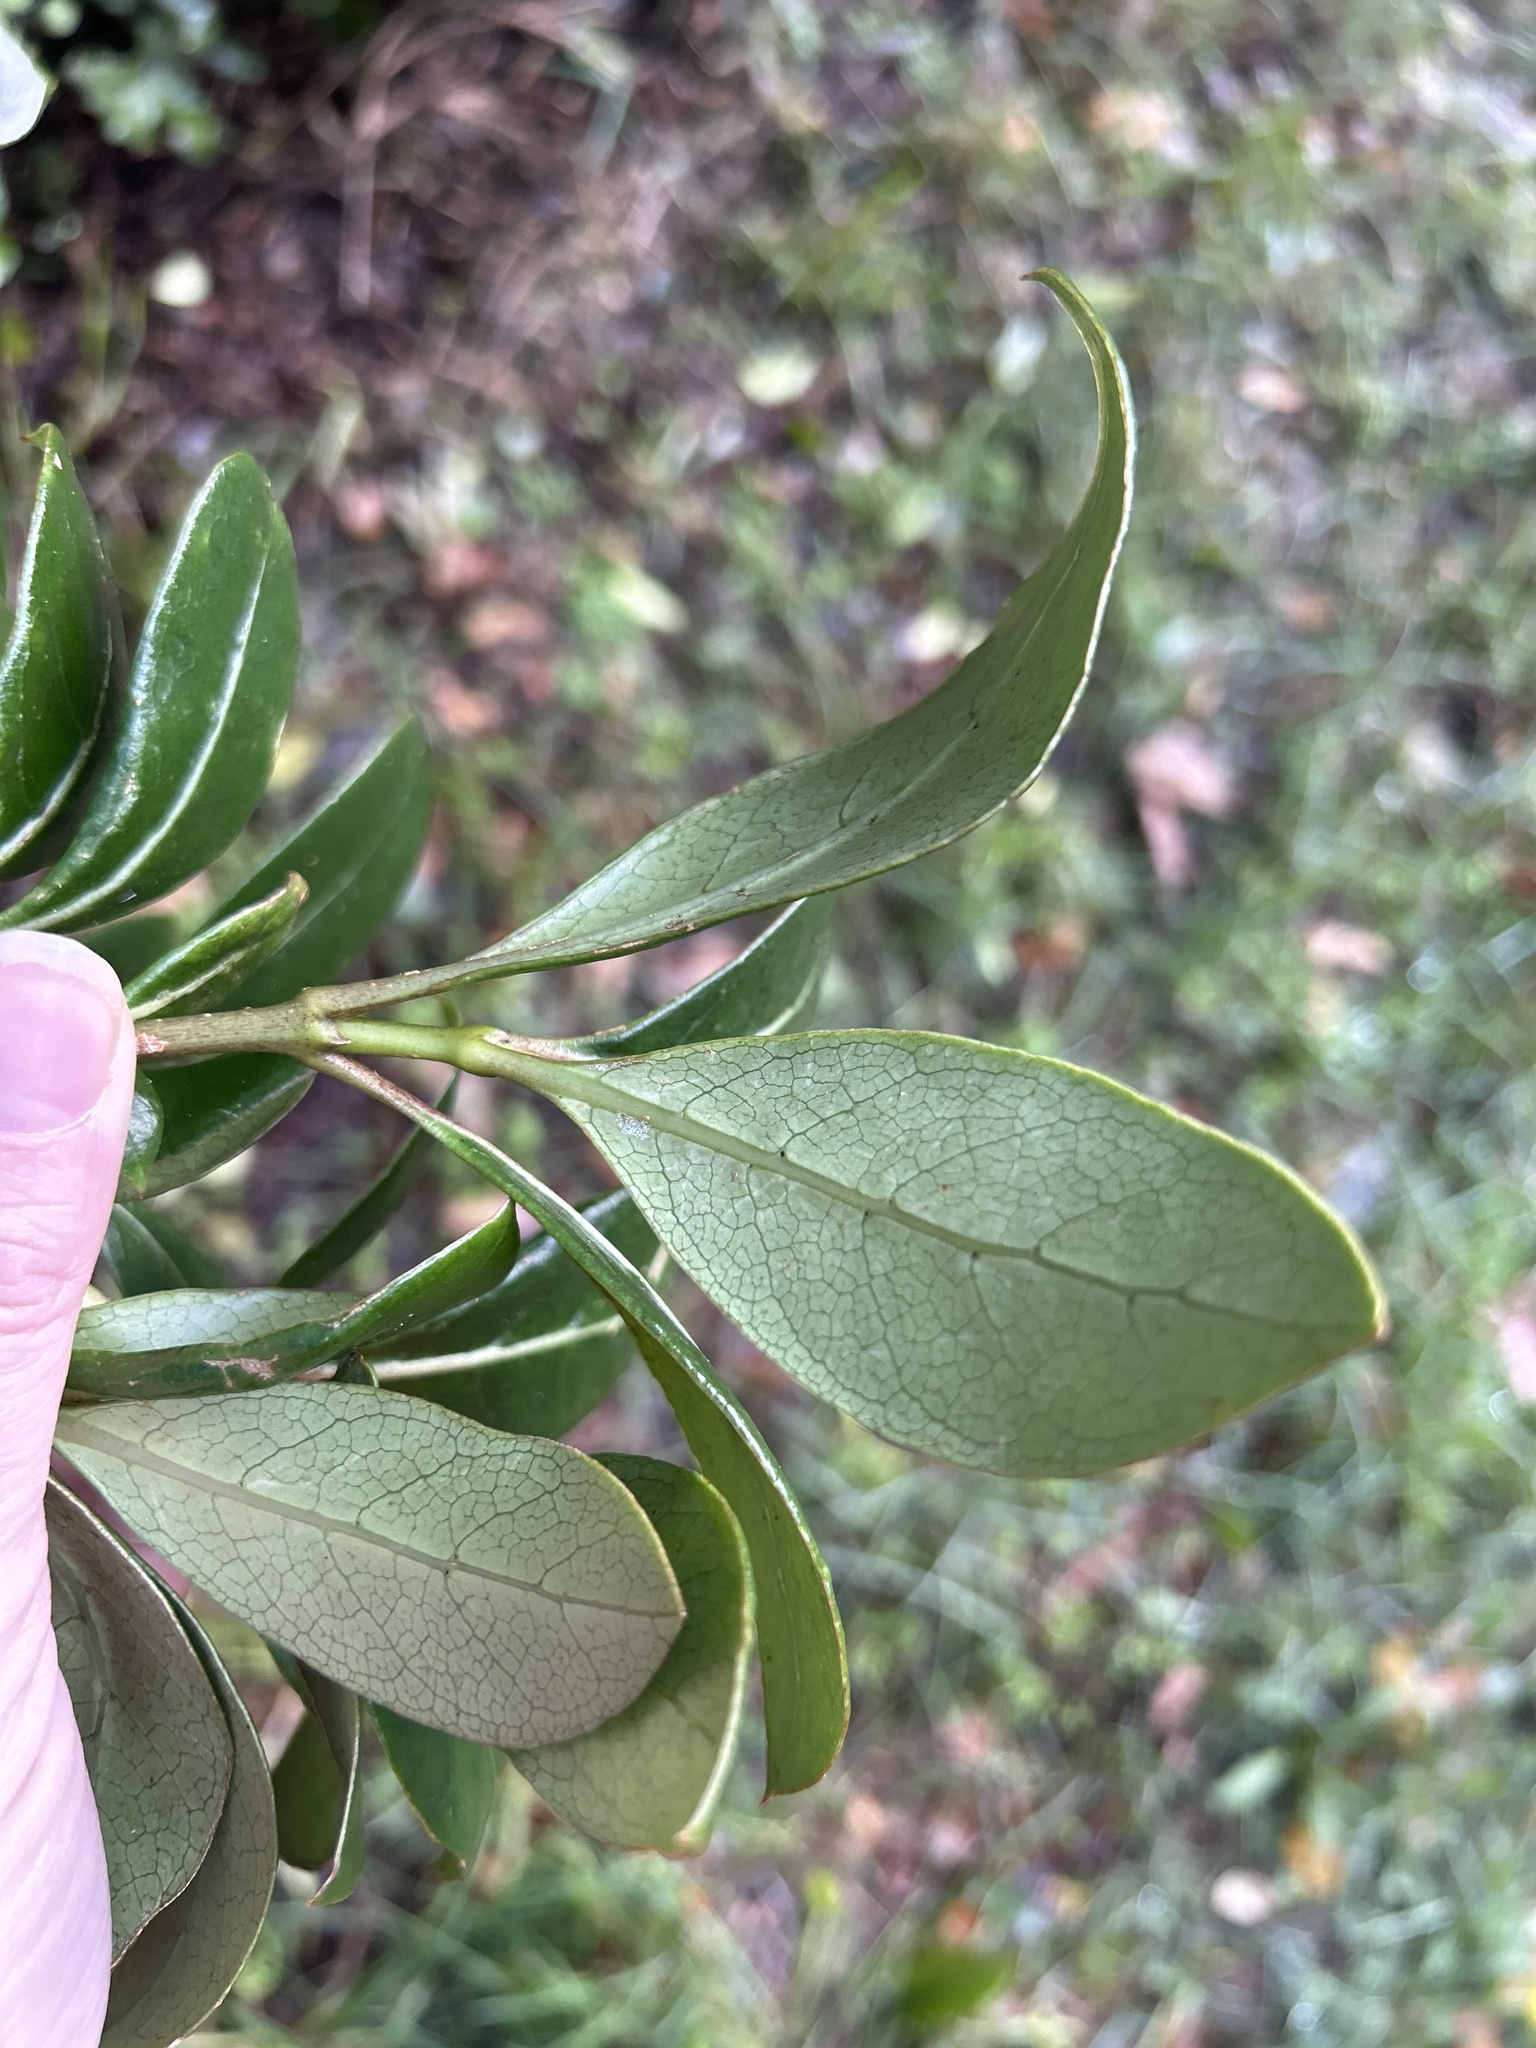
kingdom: Plantae
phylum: Tracheophyta
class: Magnoliopsida
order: Gentianales
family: Rubiaceae
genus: Coprosma
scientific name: Coprosma lucida
